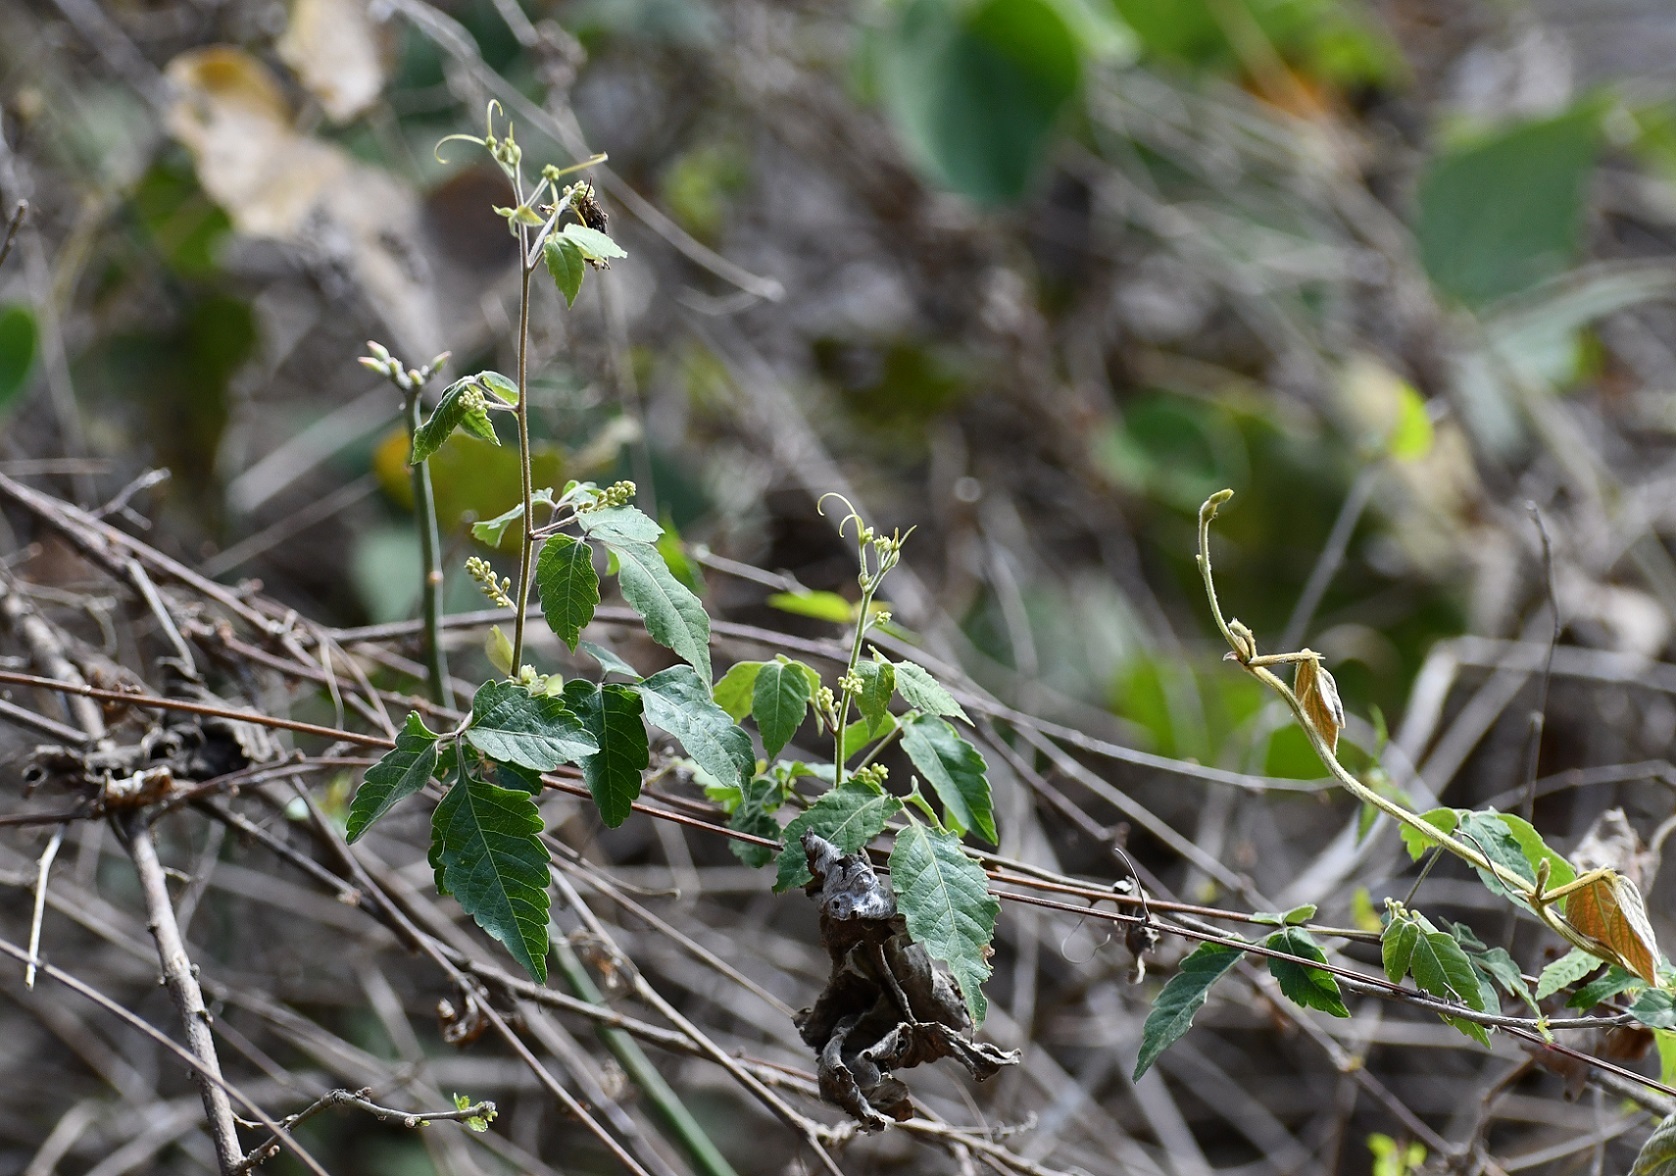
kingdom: Plantae
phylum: Tracheophyta
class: Magnoliopsida
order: Sapindales
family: Sapindaceae
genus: Urvillea
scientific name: Urvillea ulmacea
